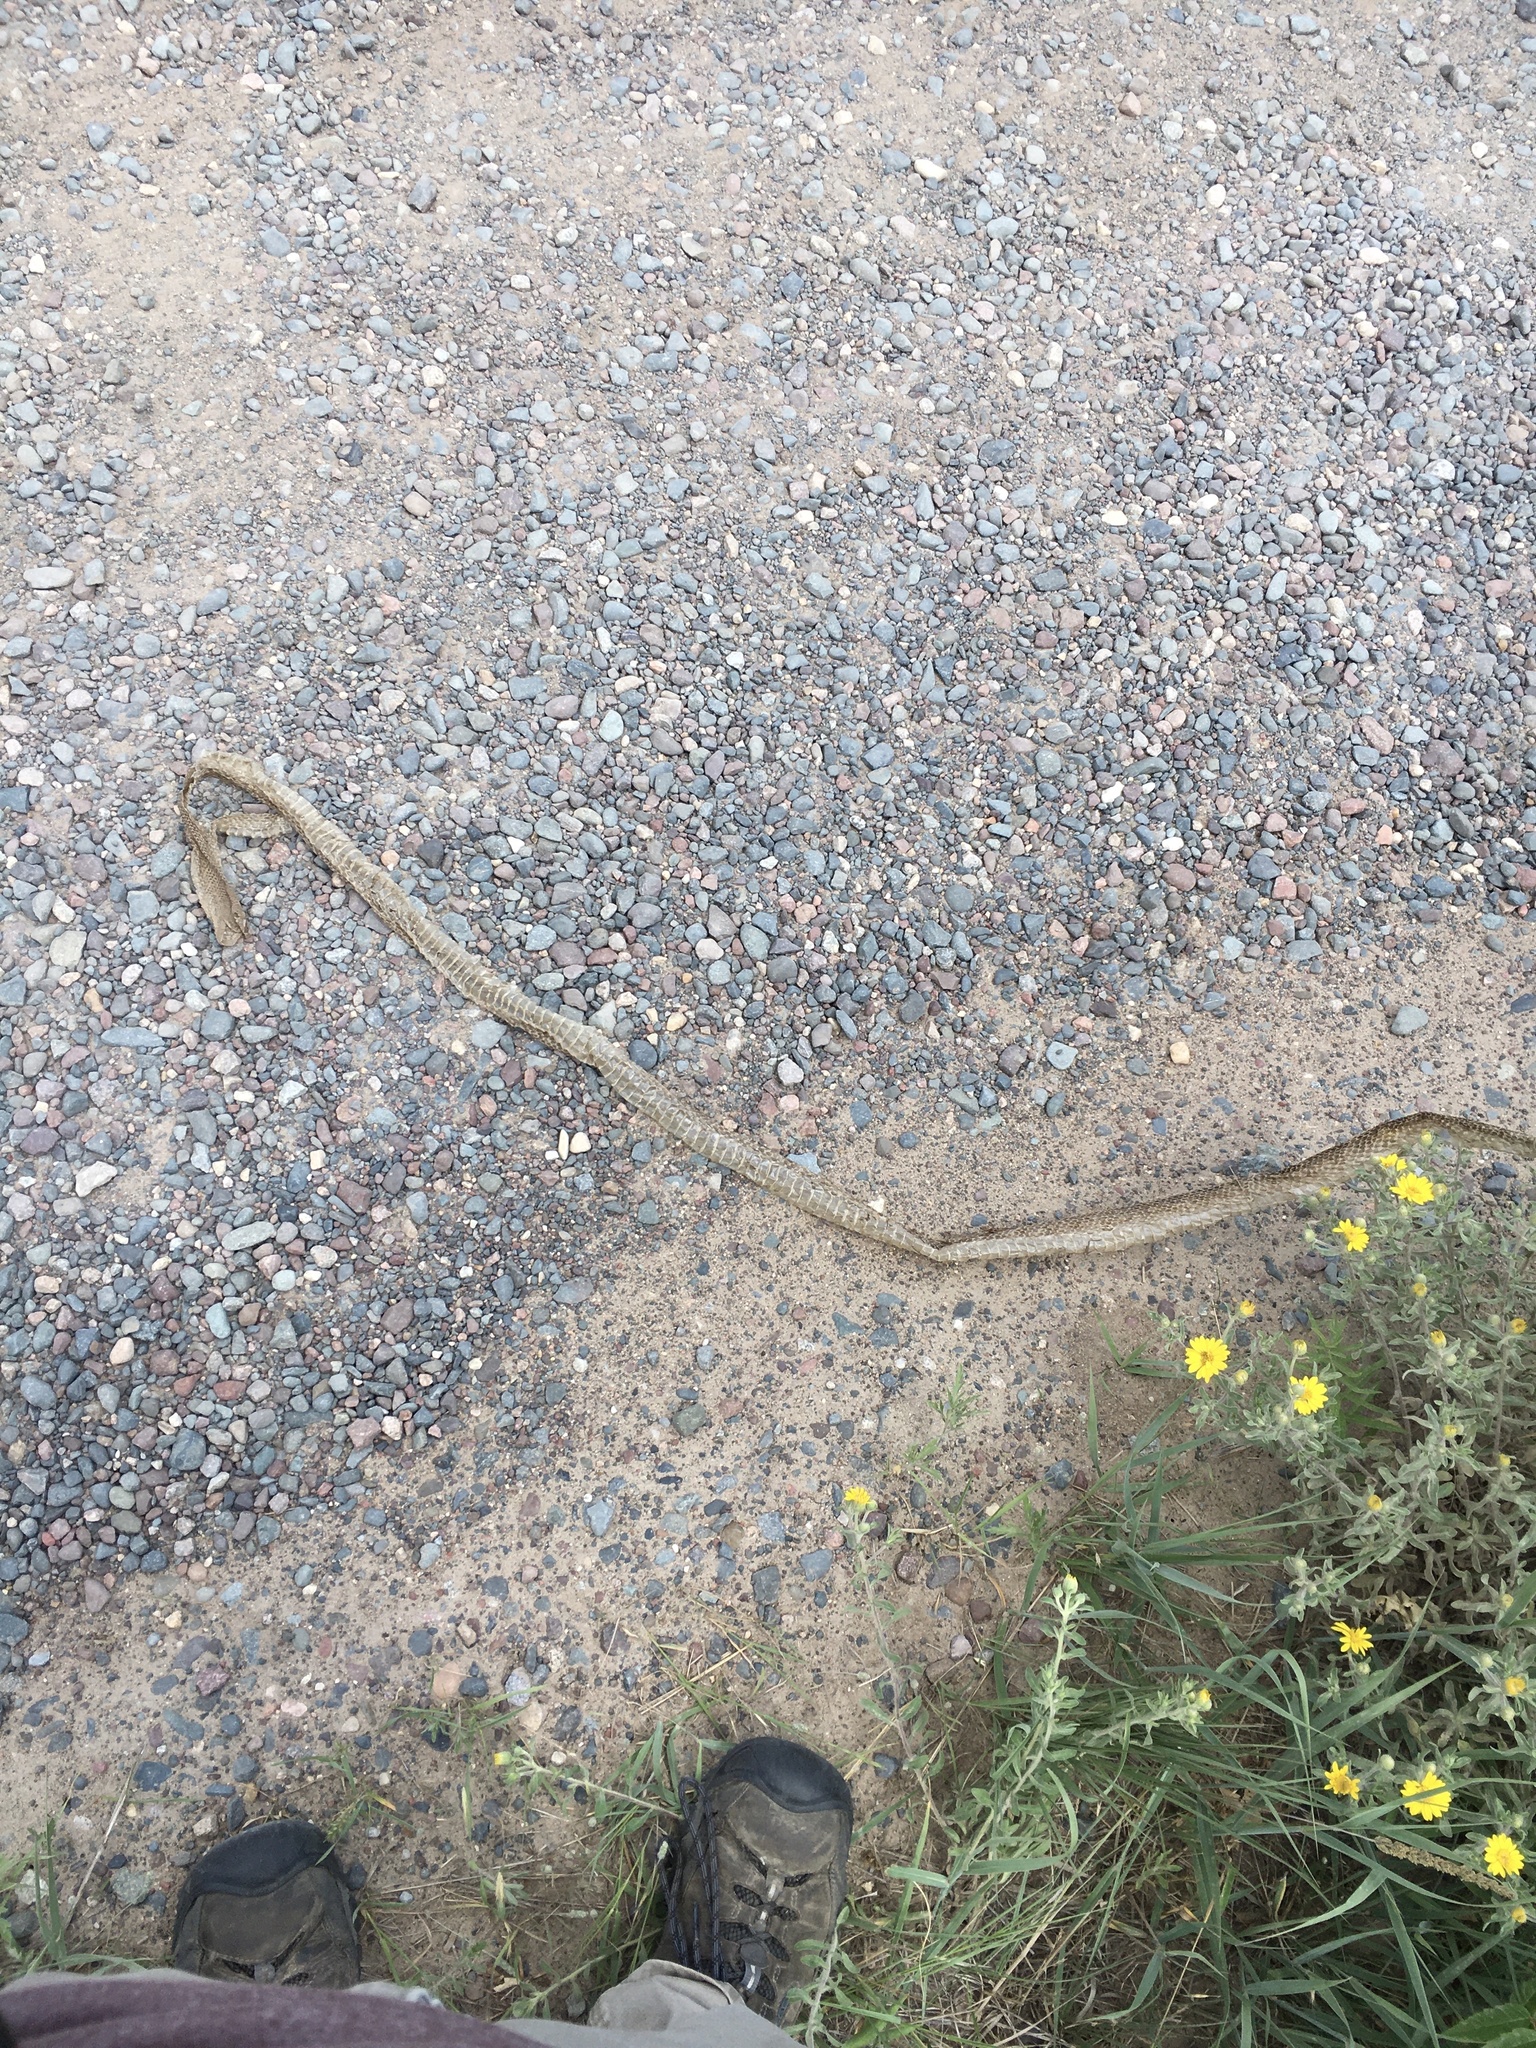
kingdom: Animalia
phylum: Chordata
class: Squamata
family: Colubridae
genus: Pituophis
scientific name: Pituophis catenifer
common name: Gopher snake
